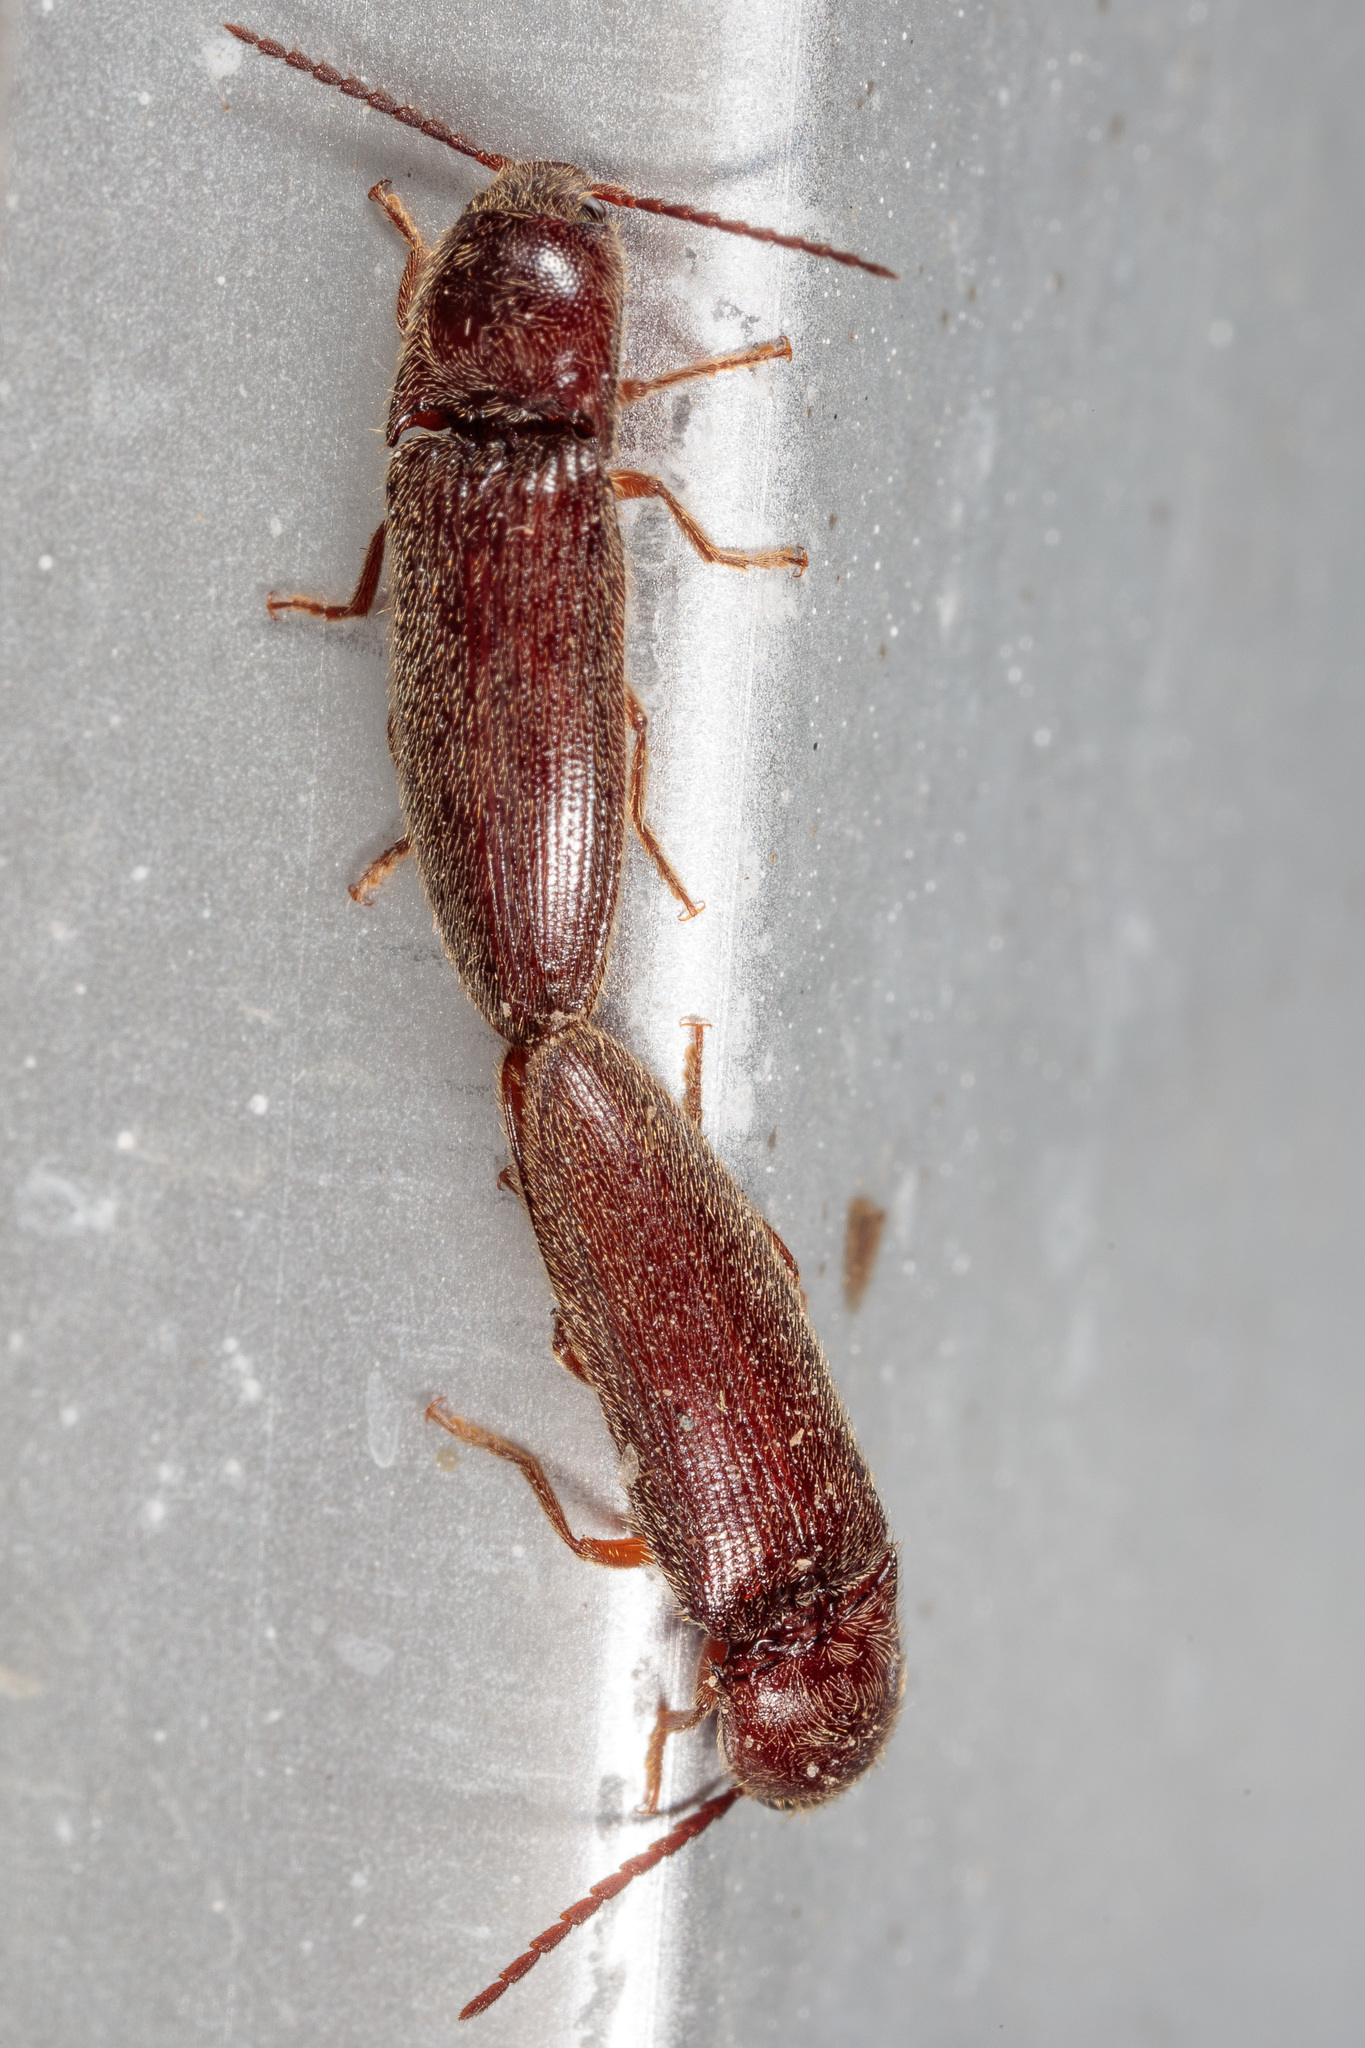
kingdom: Animalia
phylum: Arthropoda
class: Insecta
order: Coleoptera
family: Elateridae
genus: Dipropus
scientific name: Dipropus
